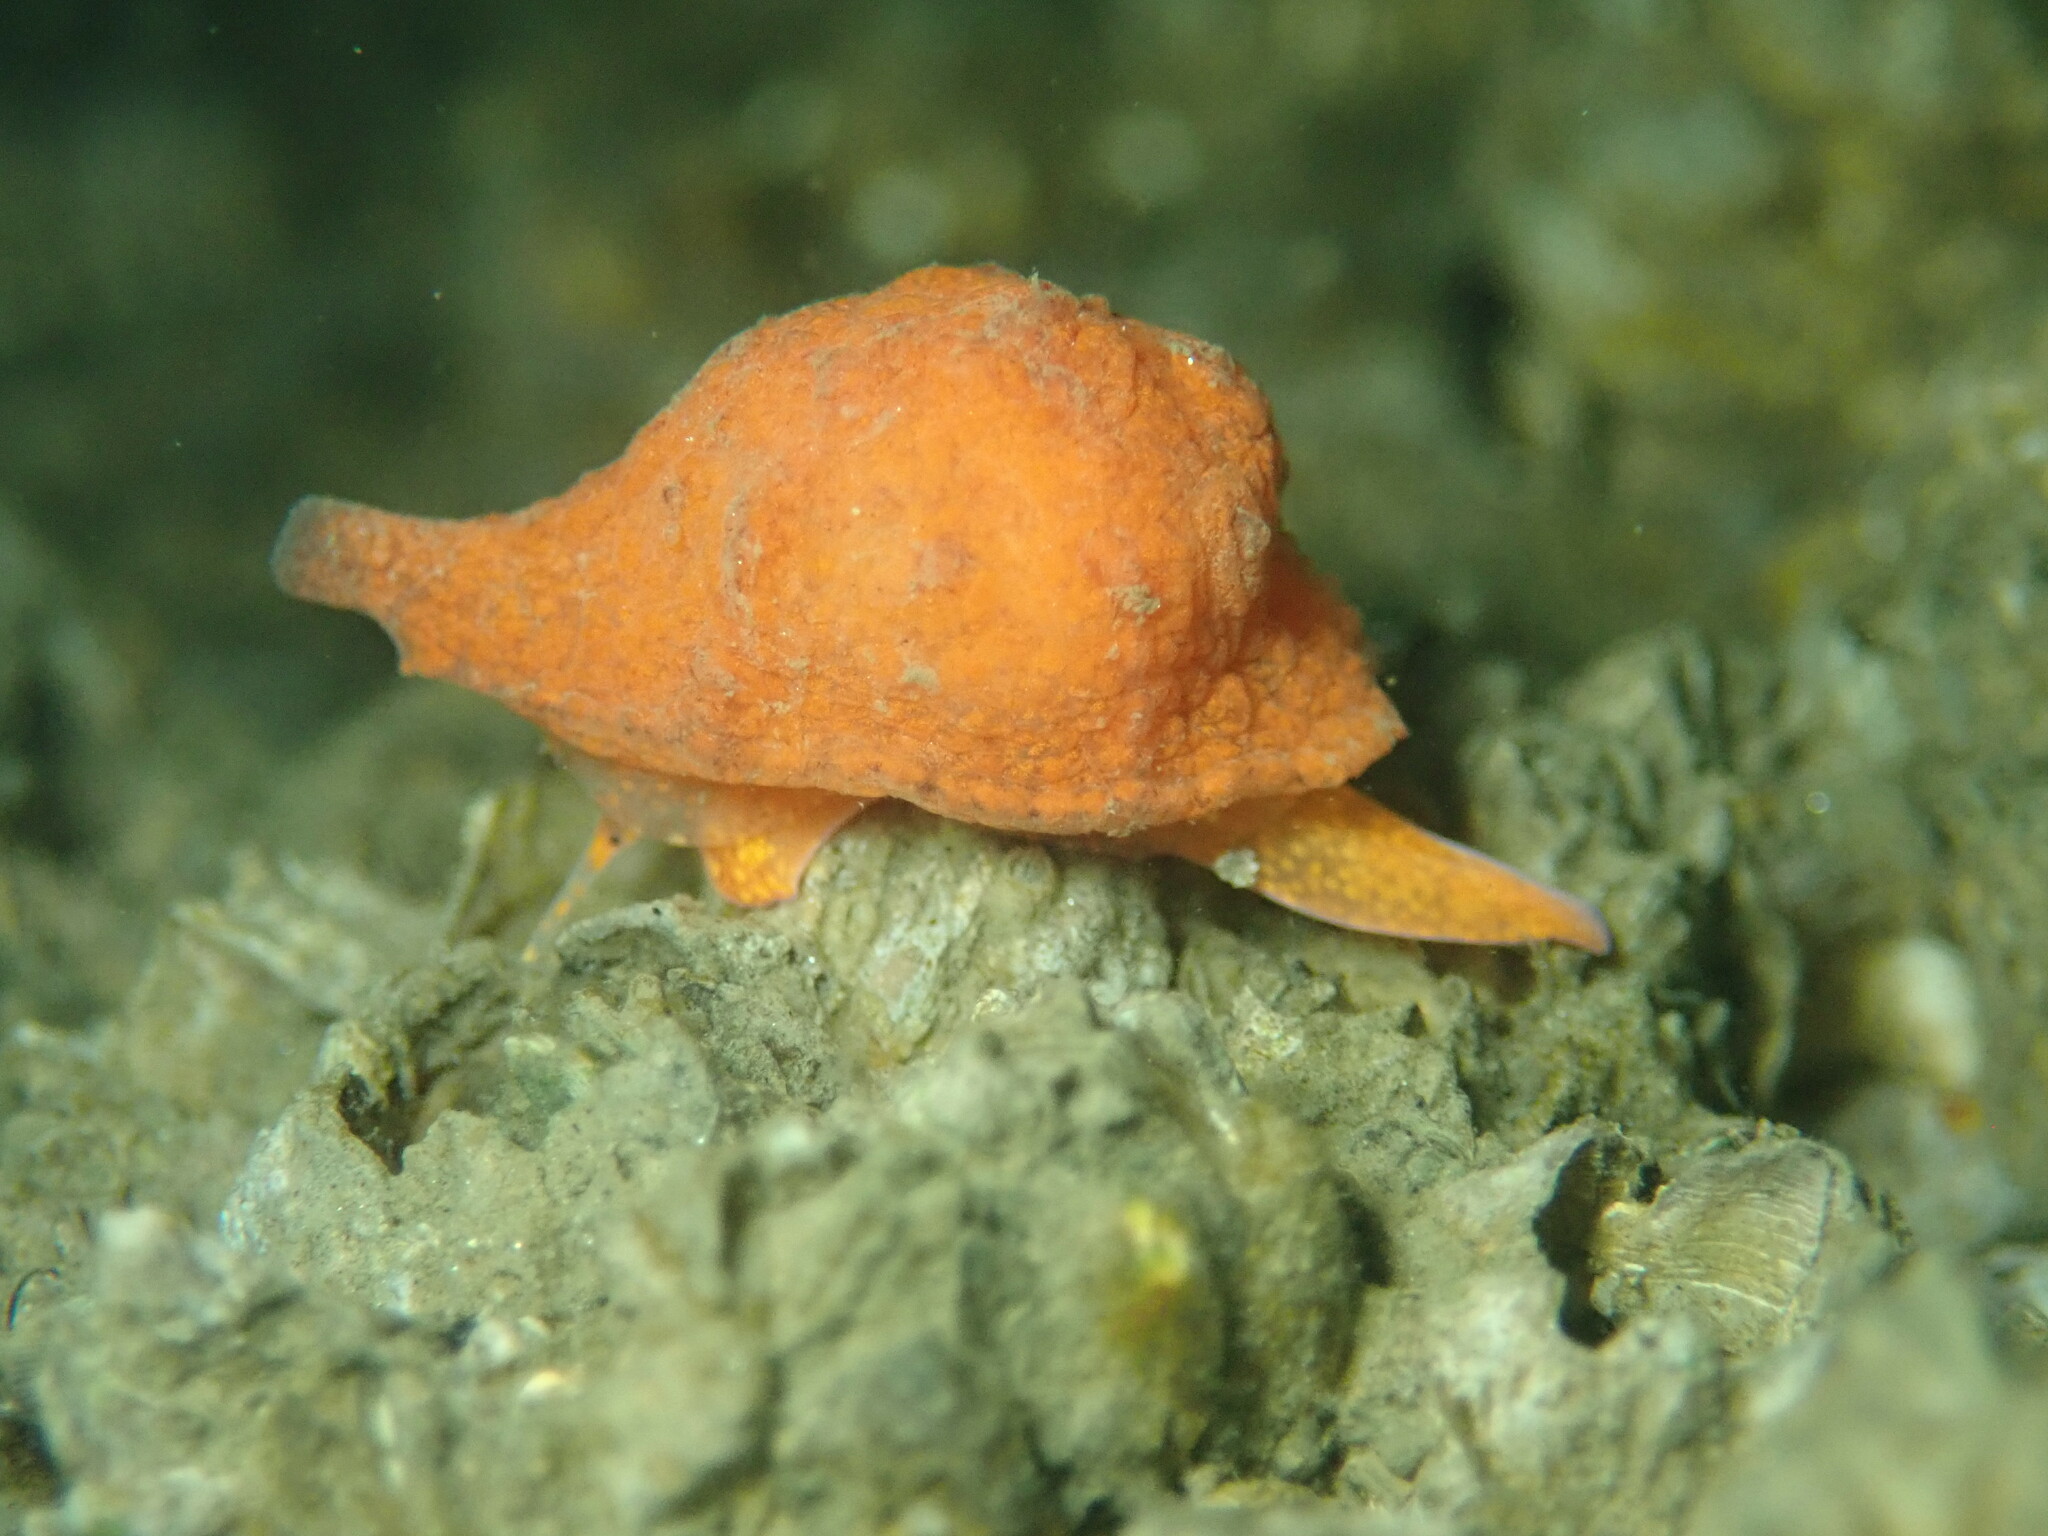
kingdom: Animalia
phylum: Mollusca
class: Gastropoda
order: Littorinimorpha
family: Velutinidae
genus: Hainotis
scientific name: Hainotis sharonae
